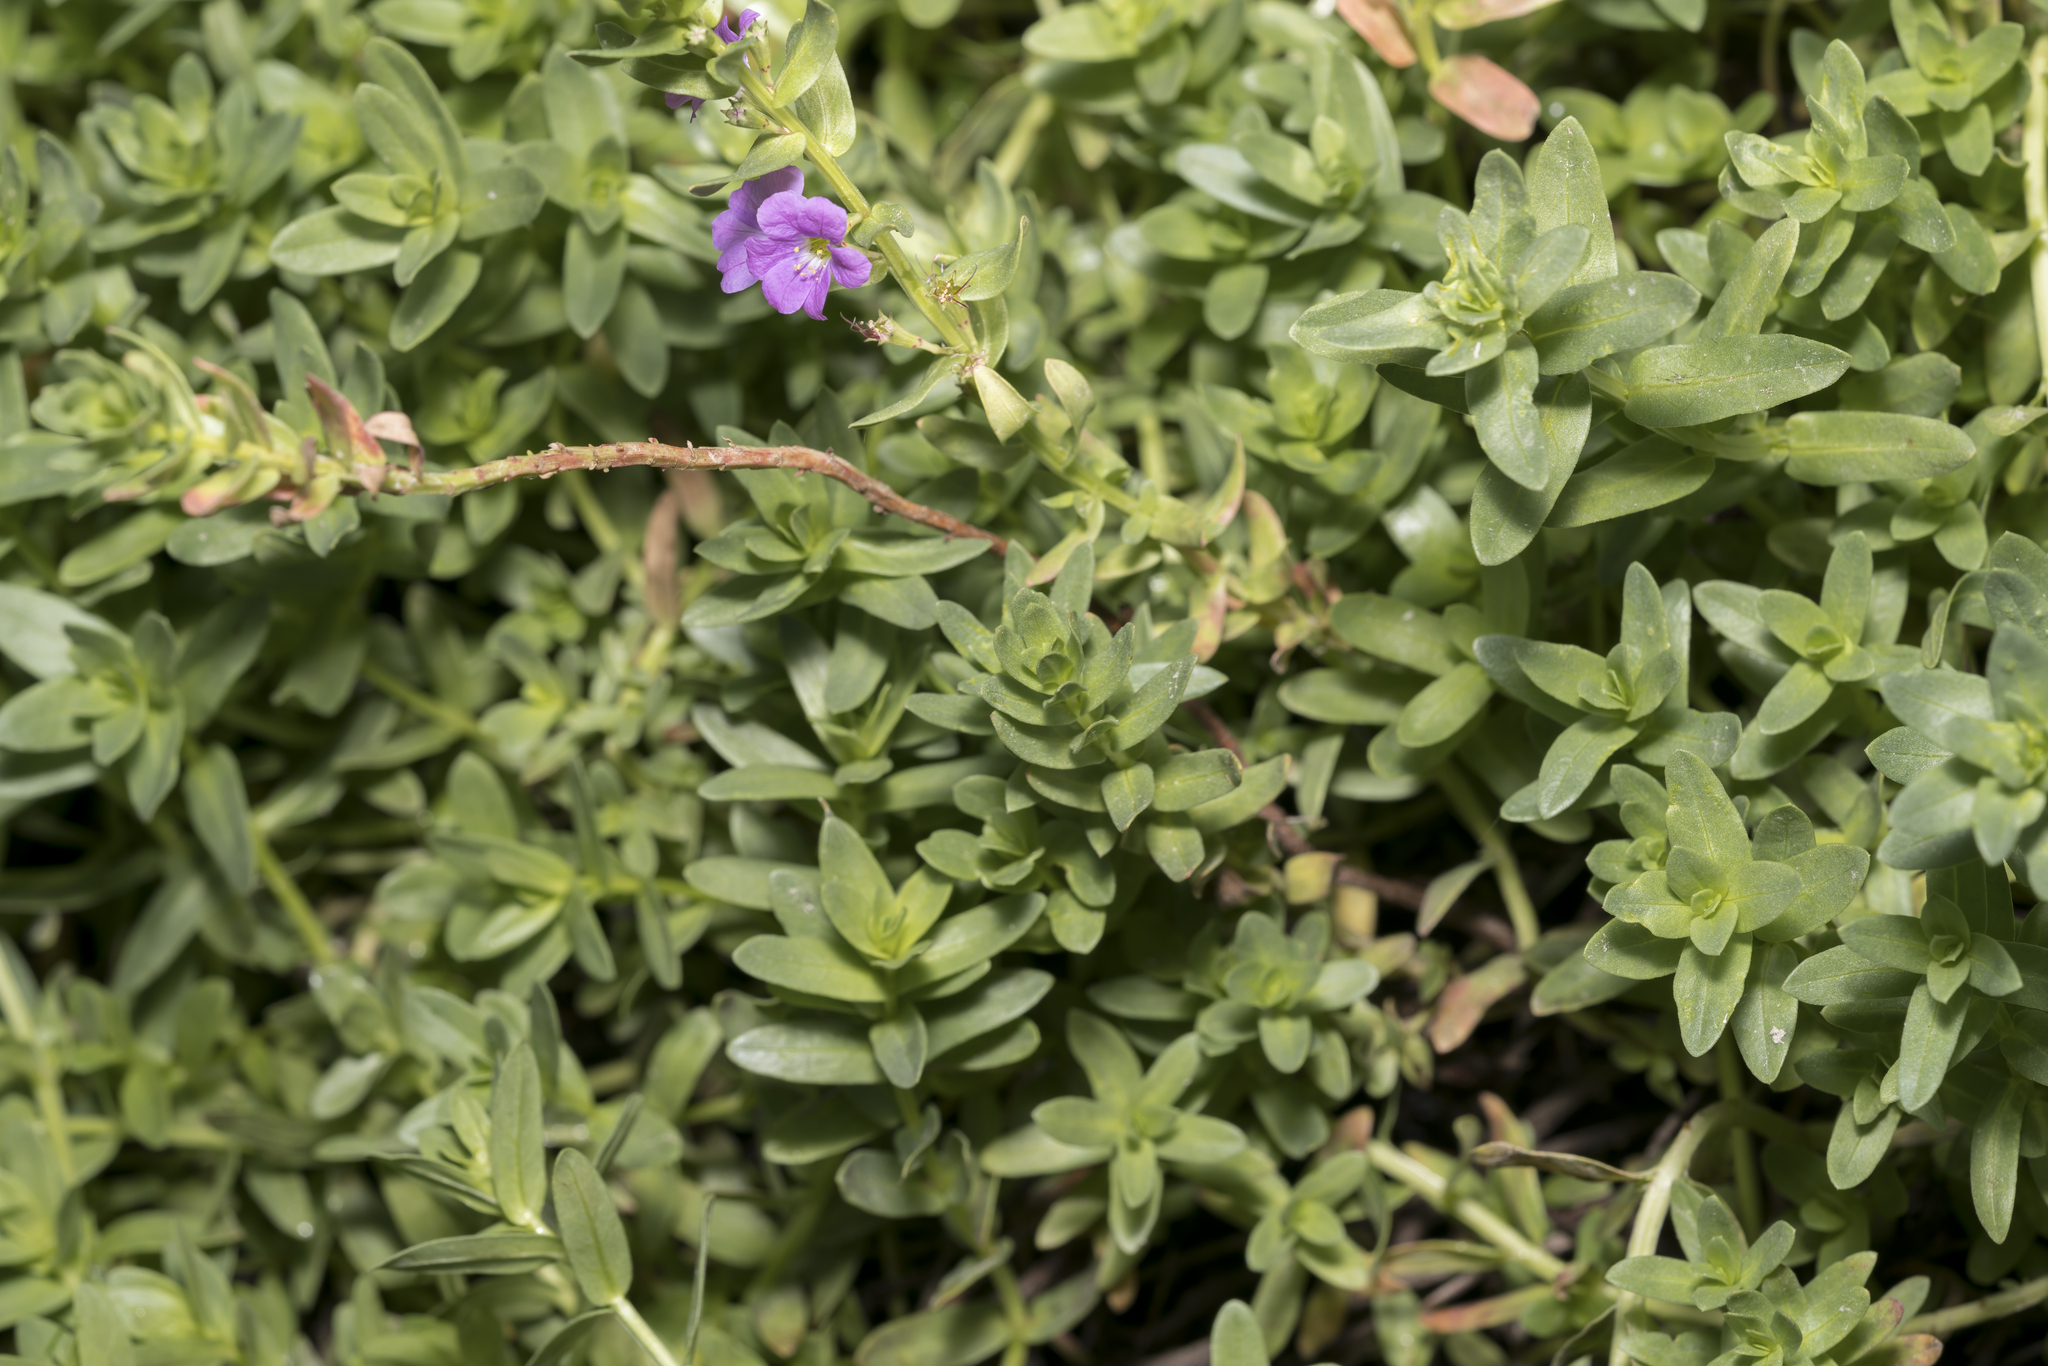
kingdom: Plantae
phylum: Tracheophyta
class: Magnoliopsida
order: Myrtales
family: Lythraceae
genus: Lythrum
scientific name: Lythrum junceum
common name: False grass-poly
